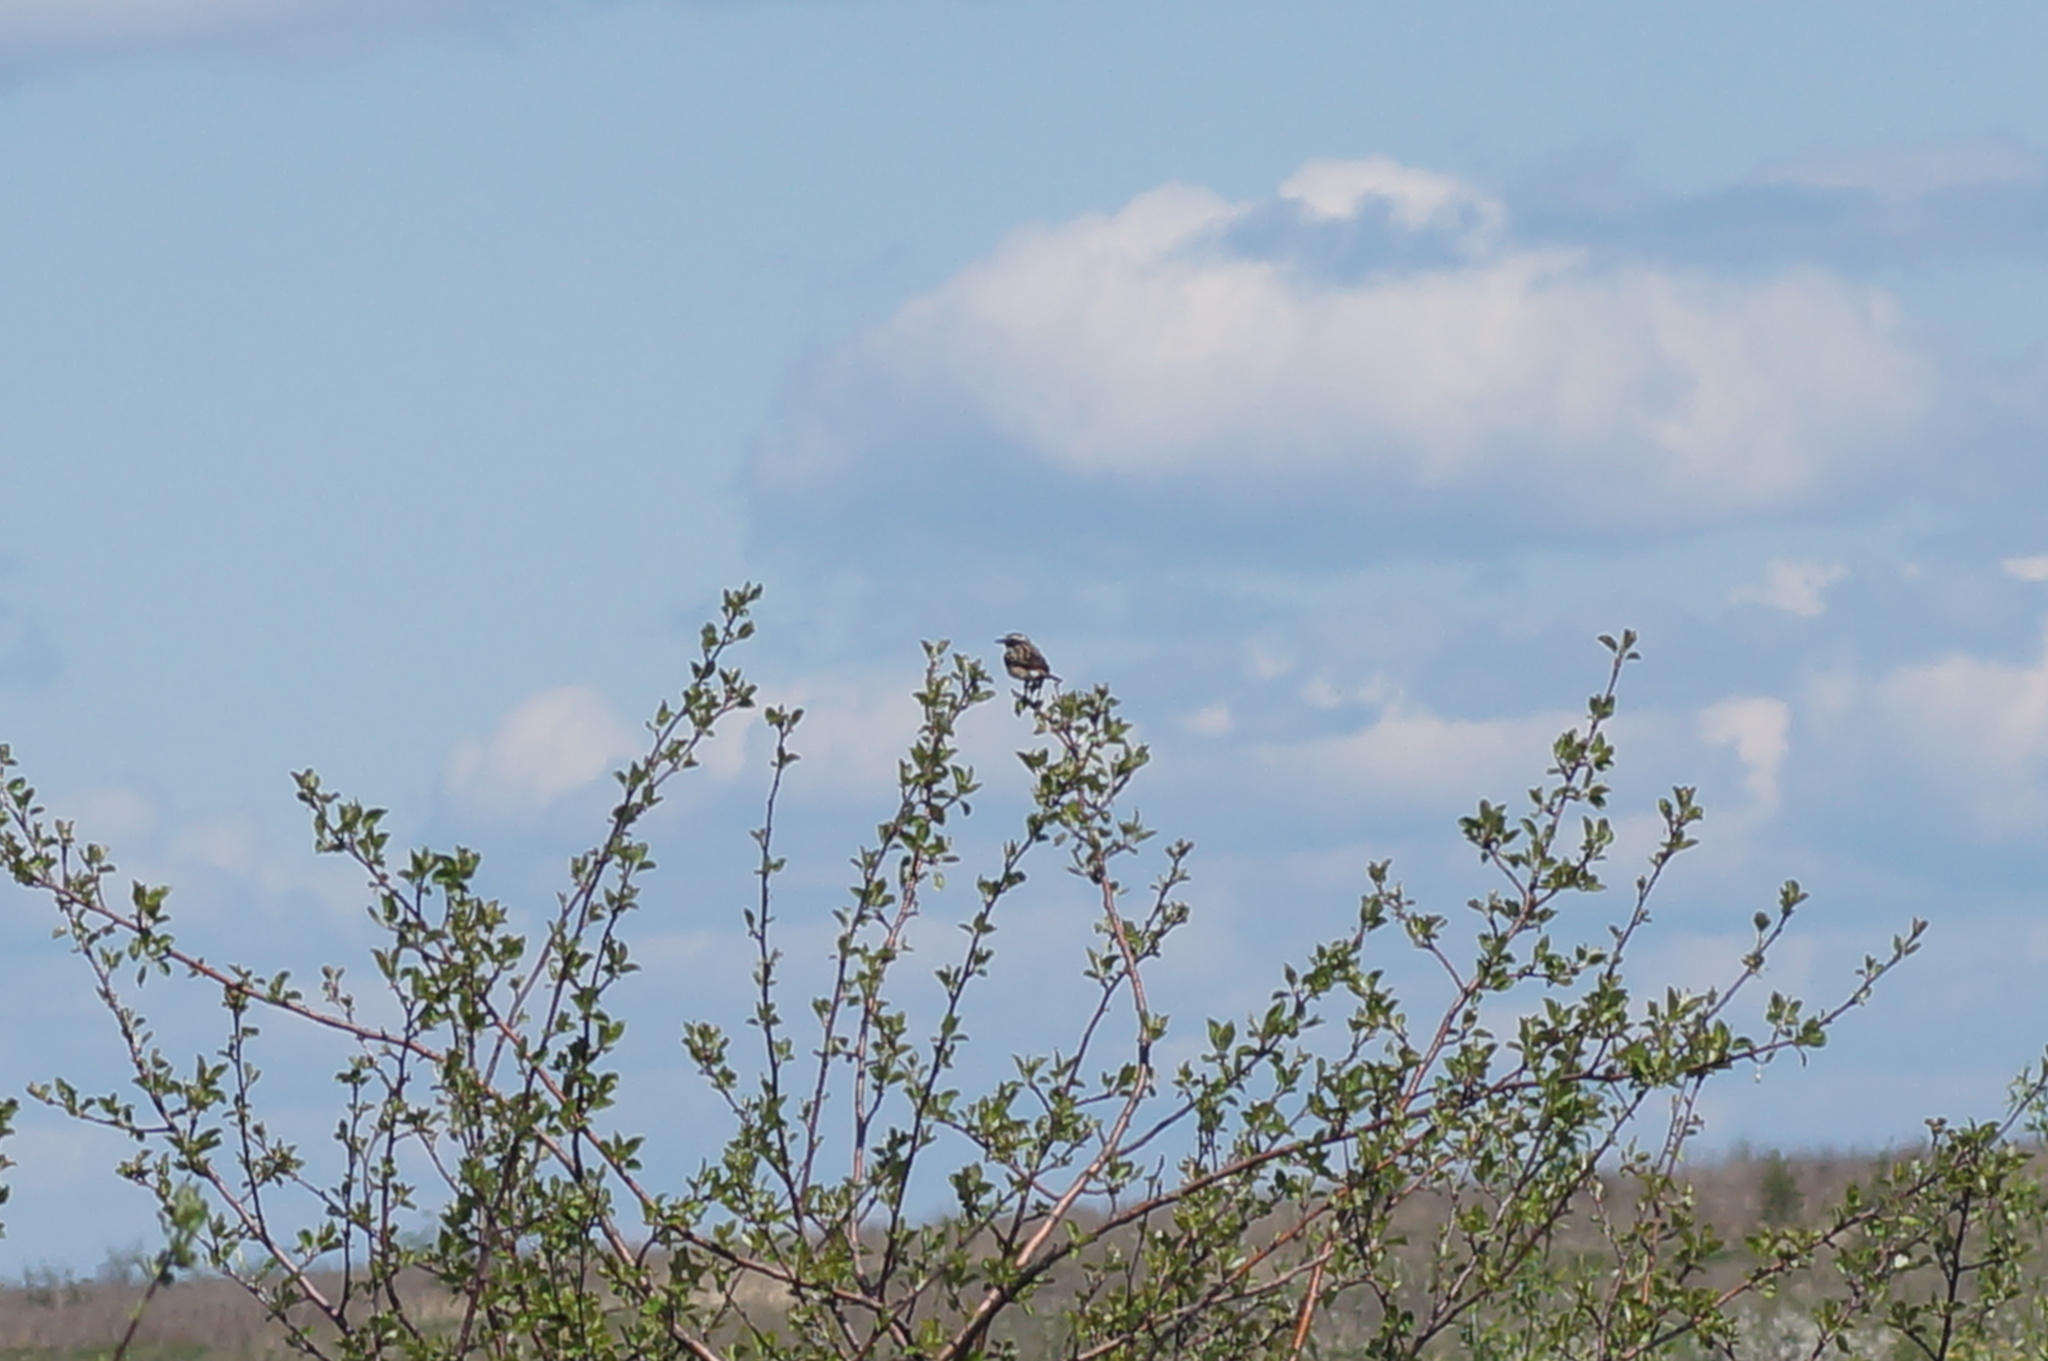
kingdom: Animalia
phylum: Chordata
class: Aves
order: Passeriformes
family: Muscicapidae
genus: Saxicola
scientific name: Saxicola rubetra
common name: Whinchat
